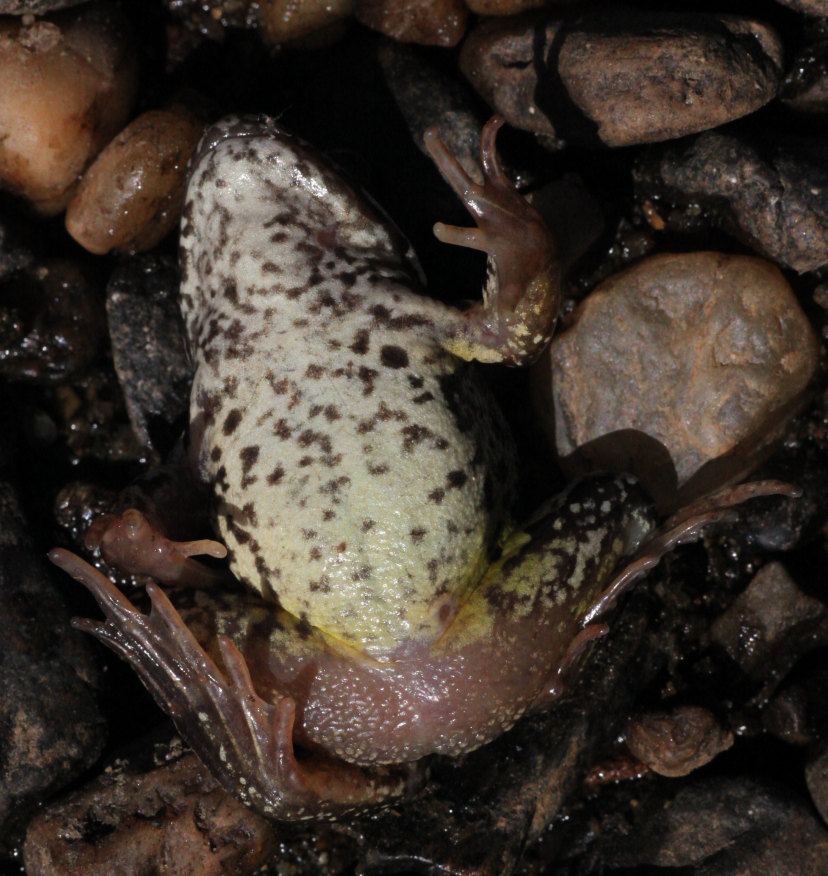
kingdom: Animalia
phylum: Chordata
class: Amphibia
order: Anura
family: Ranidae
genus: Rana
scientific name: Rana temporaria
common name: Common frog
